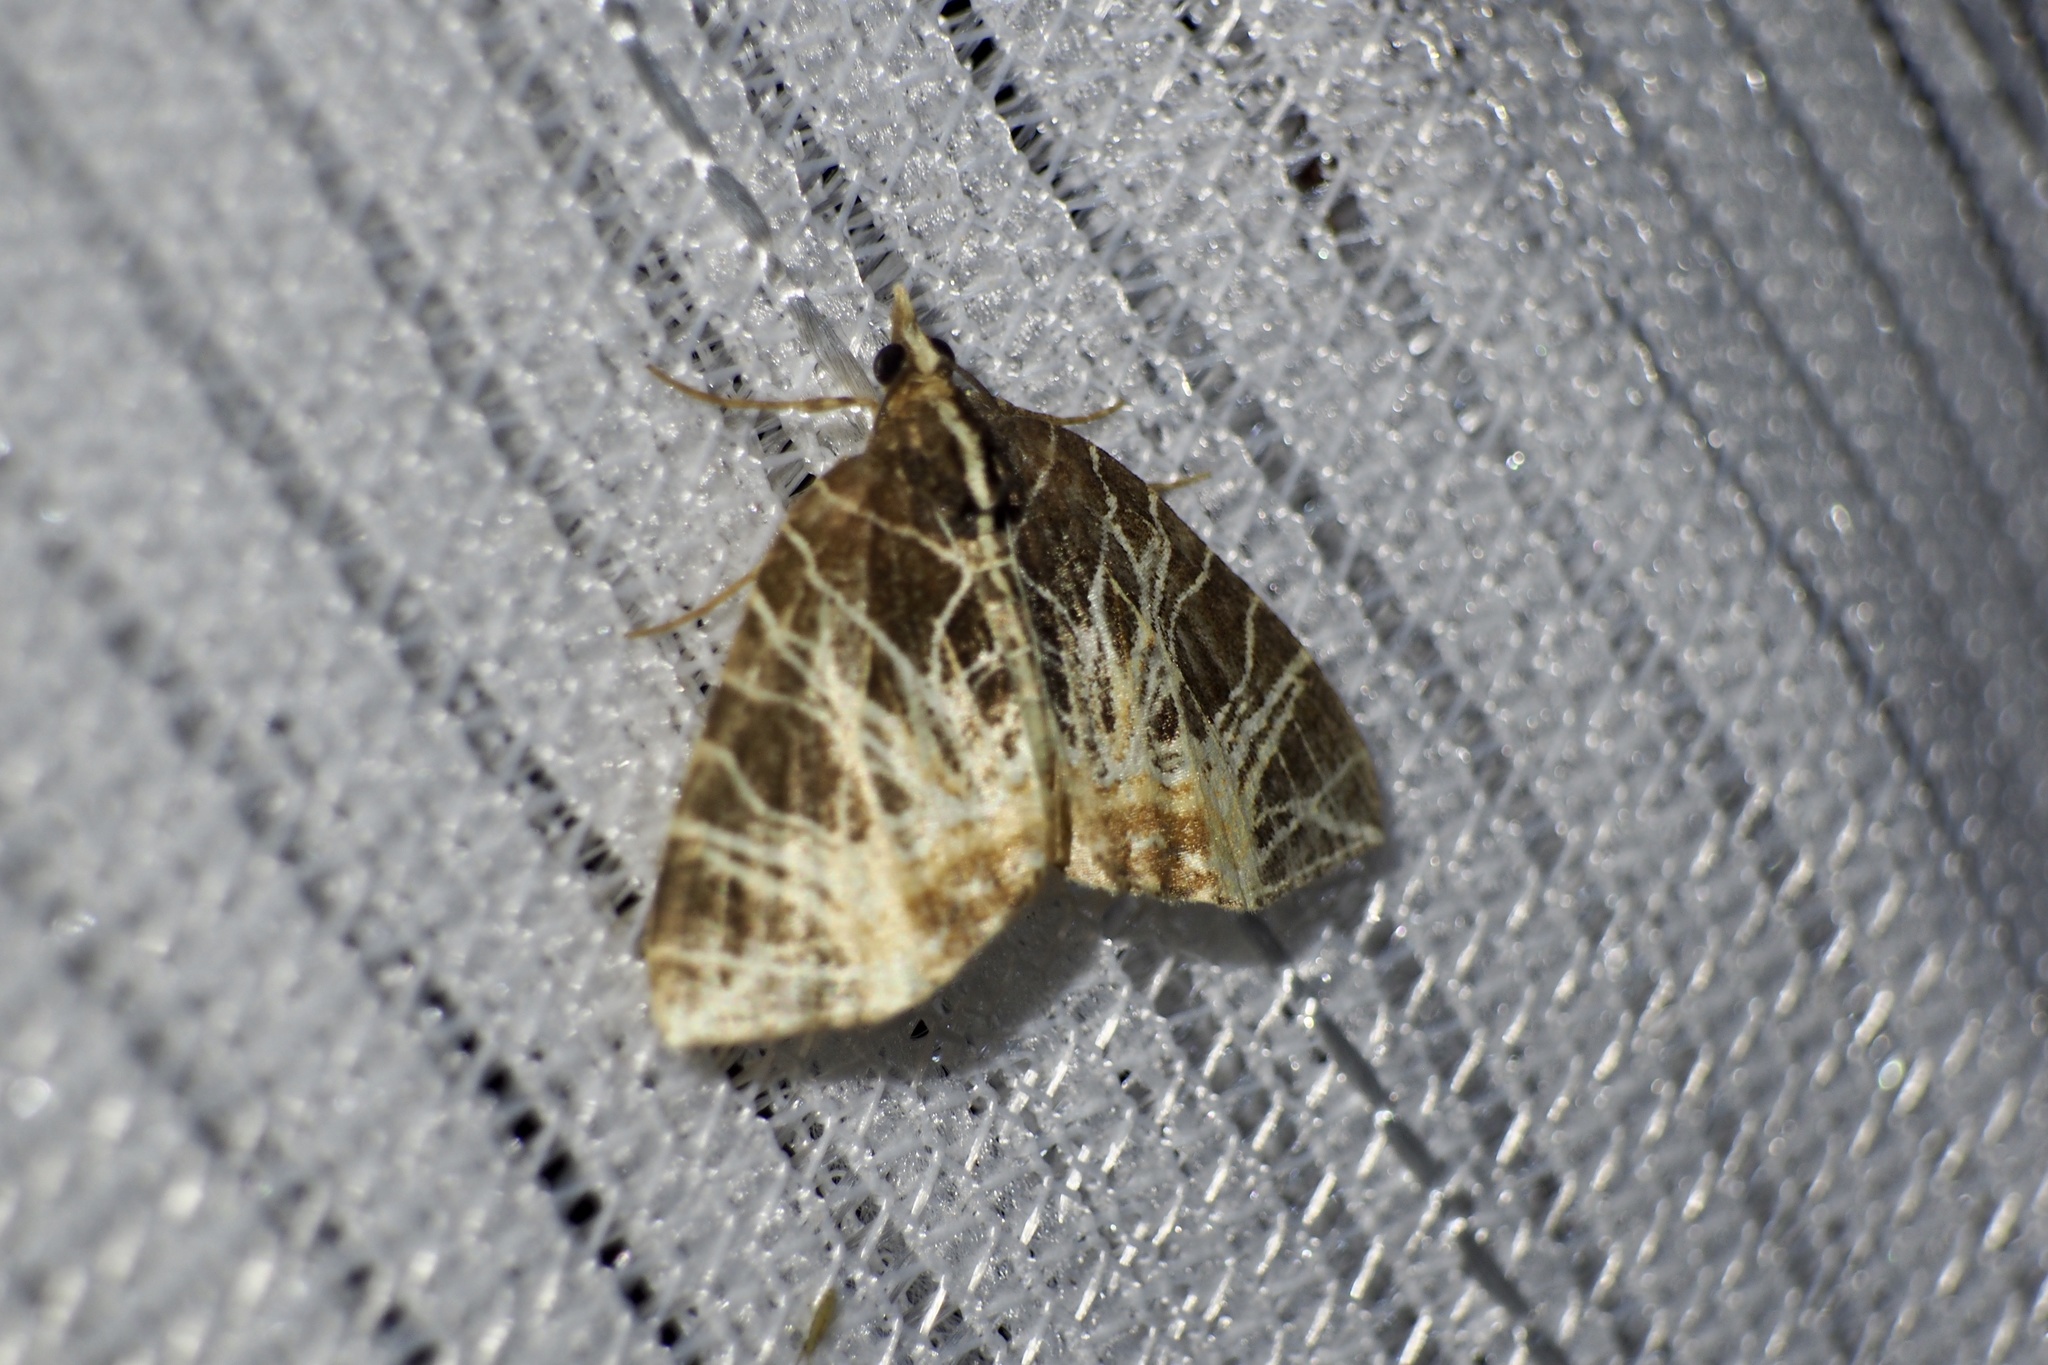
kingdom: Animalia
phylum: Arthropoda
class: Insecta
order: Lepidoptera
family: Geometridae
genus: Evecliptopera
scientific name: Evecliptopera illitata
